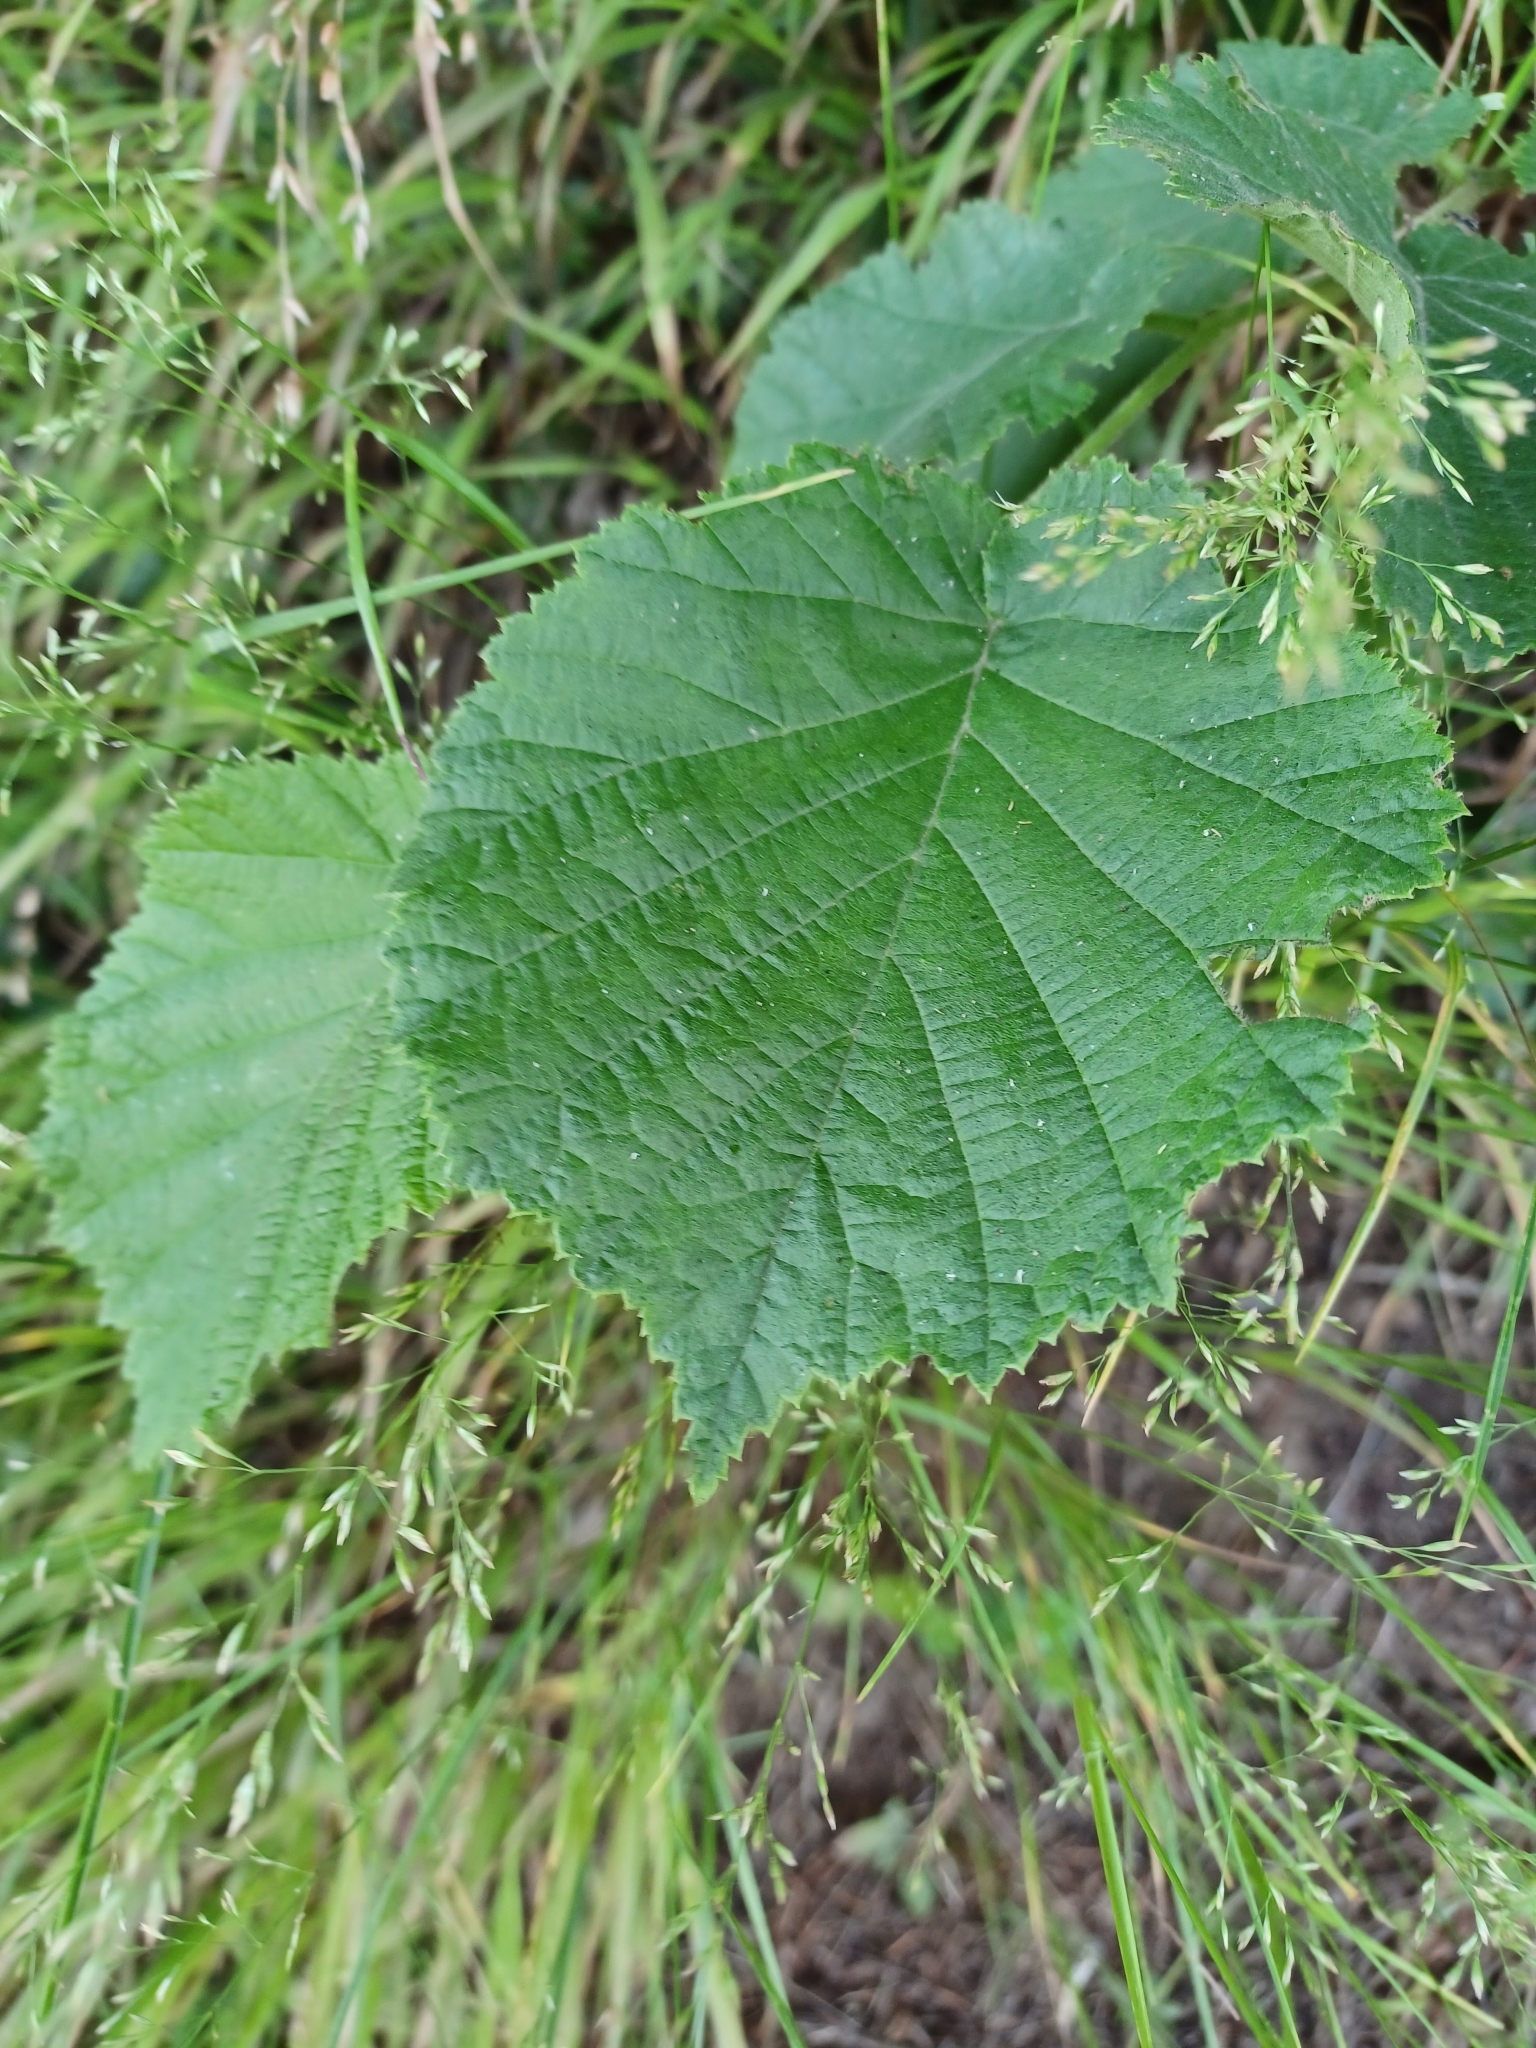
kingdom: Plantae
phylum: Tracheophyta
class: Magnoliopsida
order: Fagales
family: Betulaceae
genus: Corylus
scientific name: Corylus avellana
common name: European hazel
